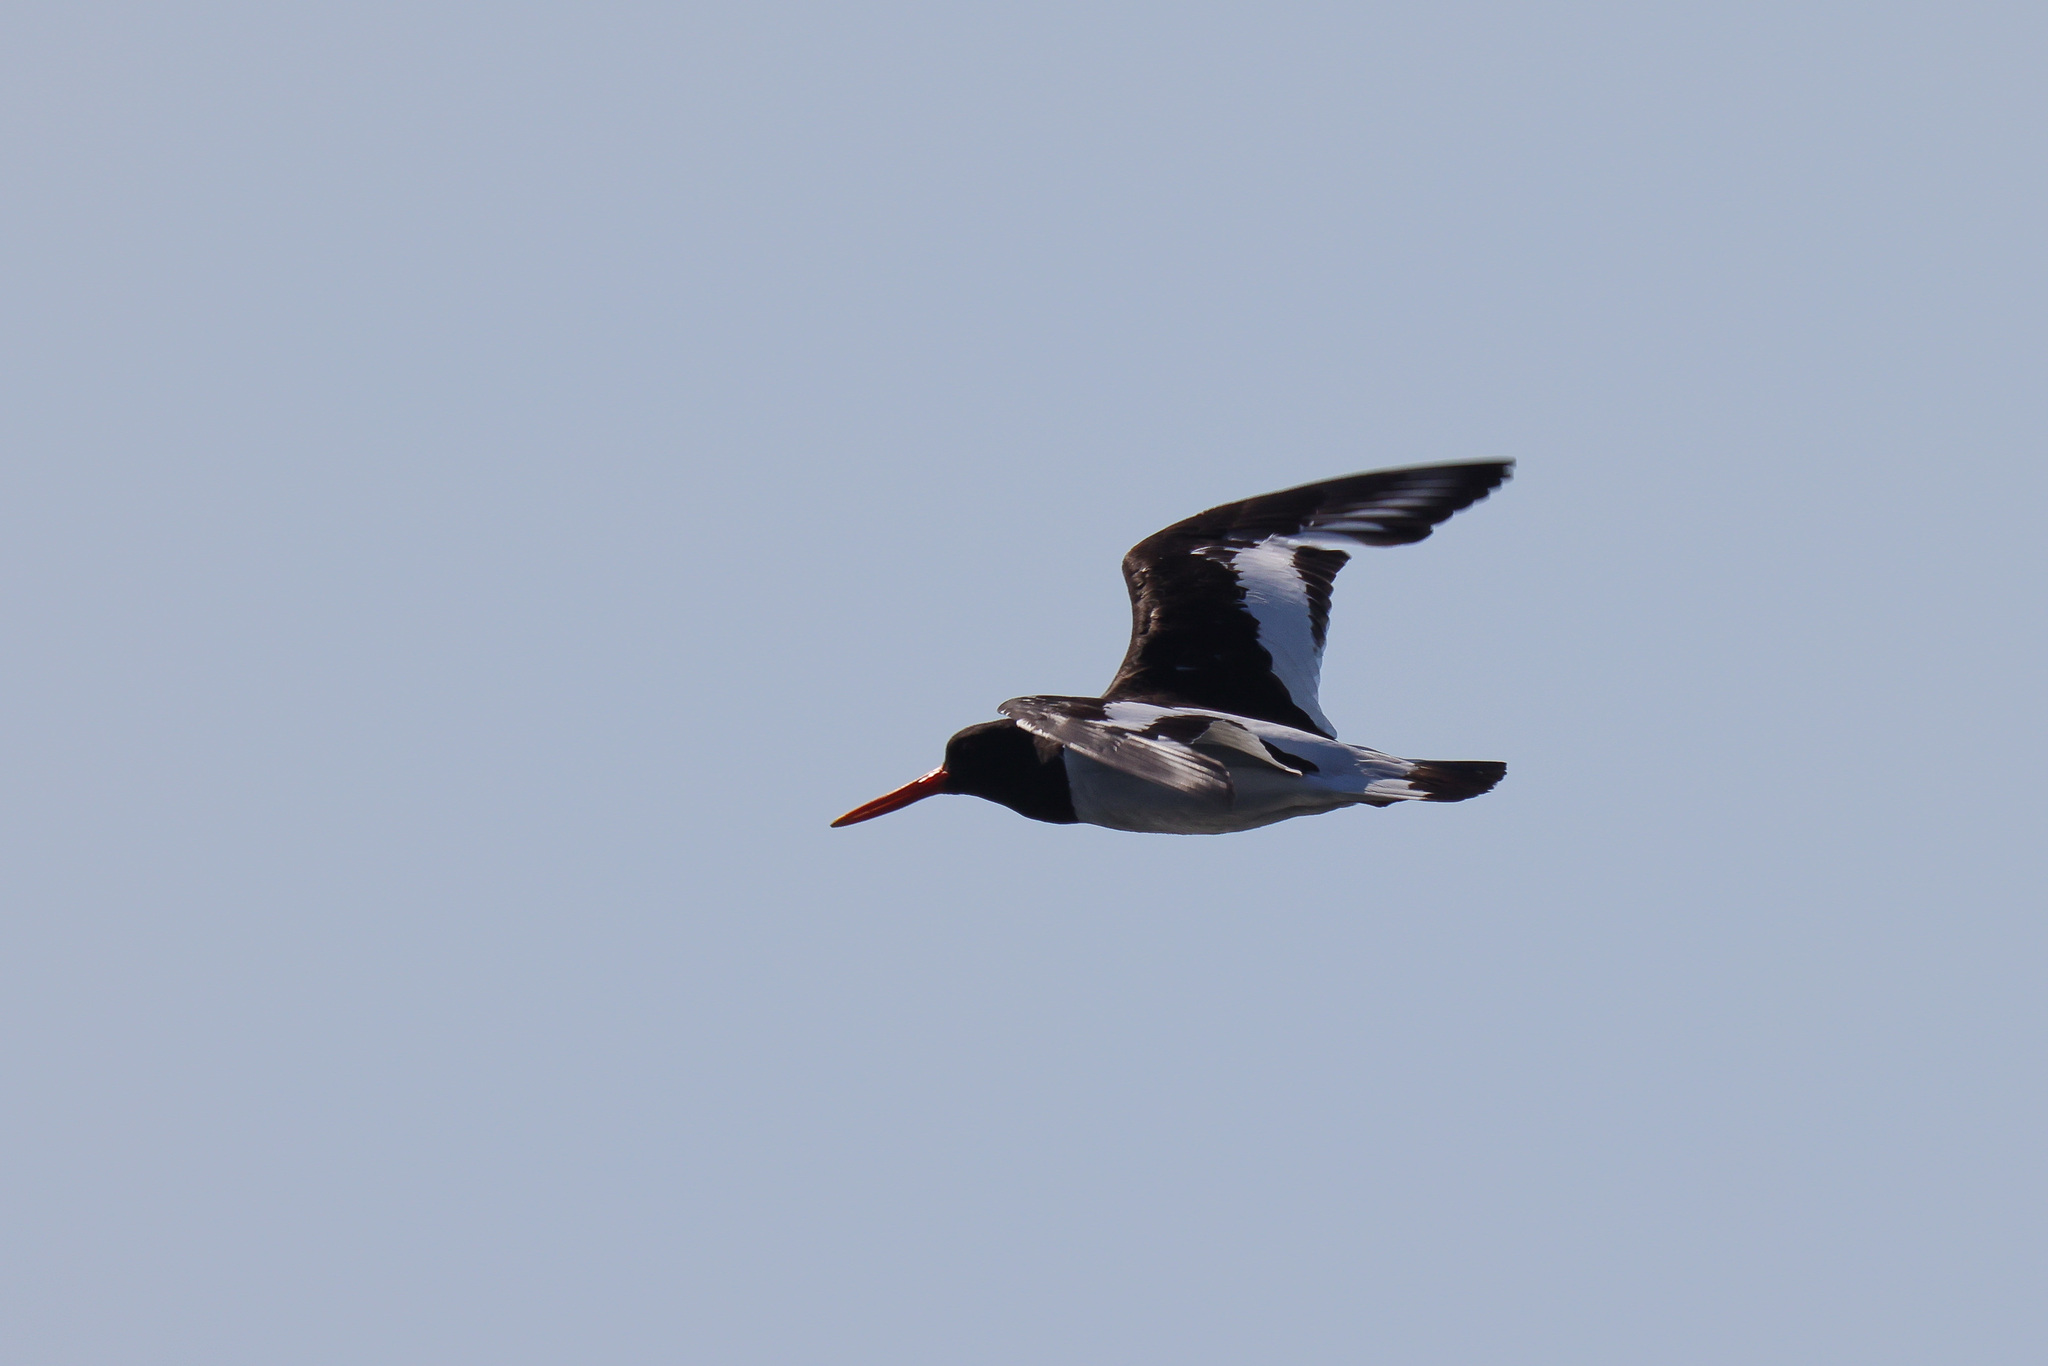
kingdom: Animalia
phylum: Chordata
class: Aves
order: Charadriiformes
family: Haematopodidae
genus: Haematopus
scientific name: Haematopus ostralegus
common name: Eurasian oystercatcher
